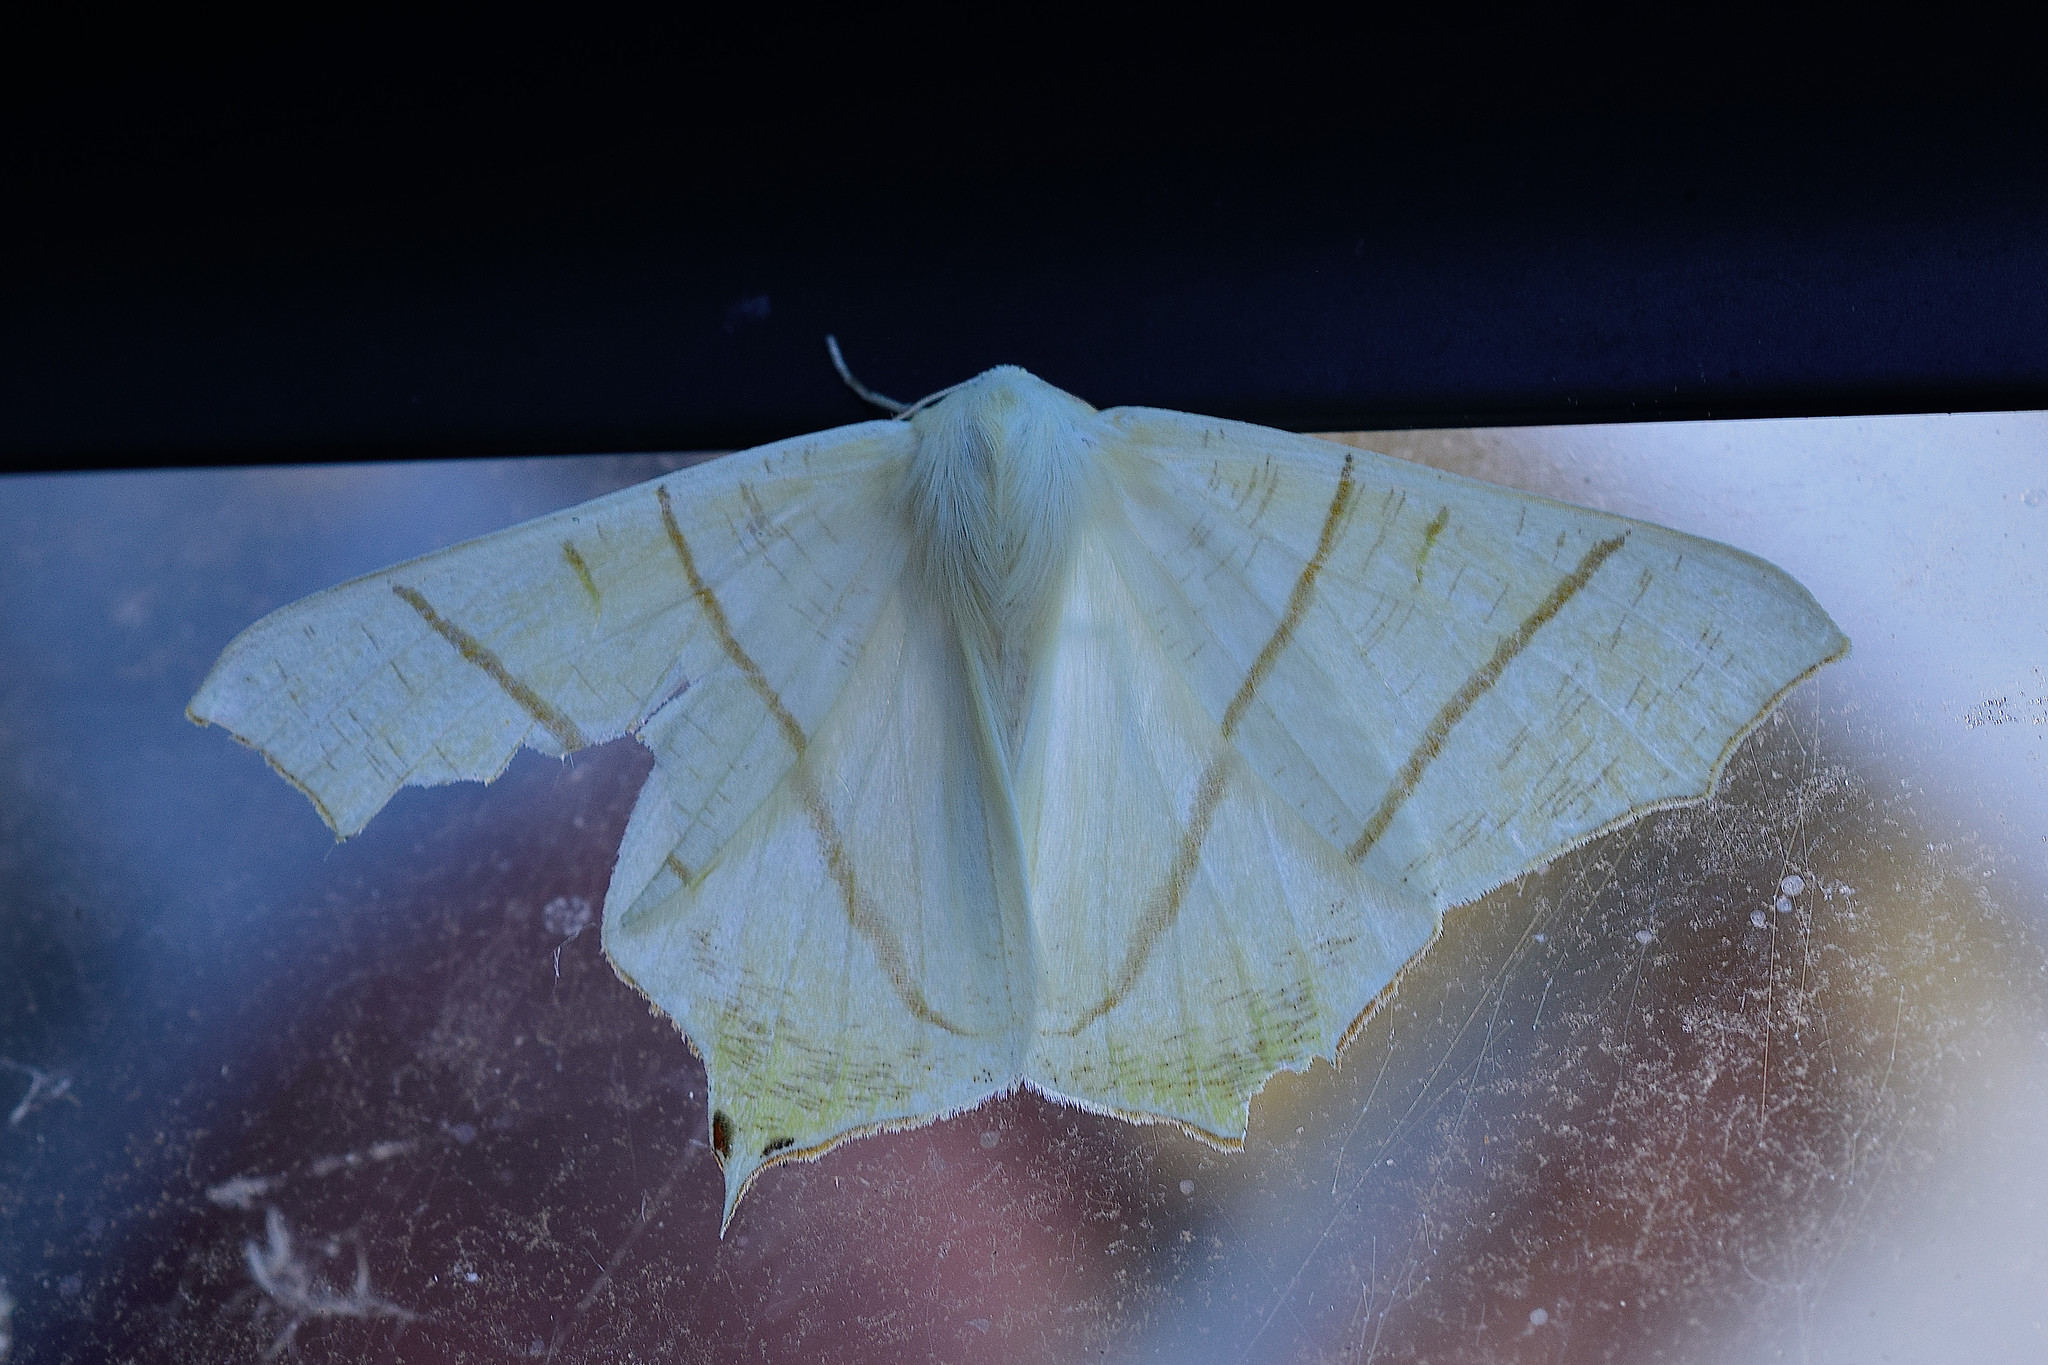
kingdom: Animalia
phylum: Arthropoda
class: Insecta
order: Lepidoptera
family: Geometridae
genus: Ourapteryx
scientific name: Ourapteryx sambucaria
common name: Swallow-tailed moth
